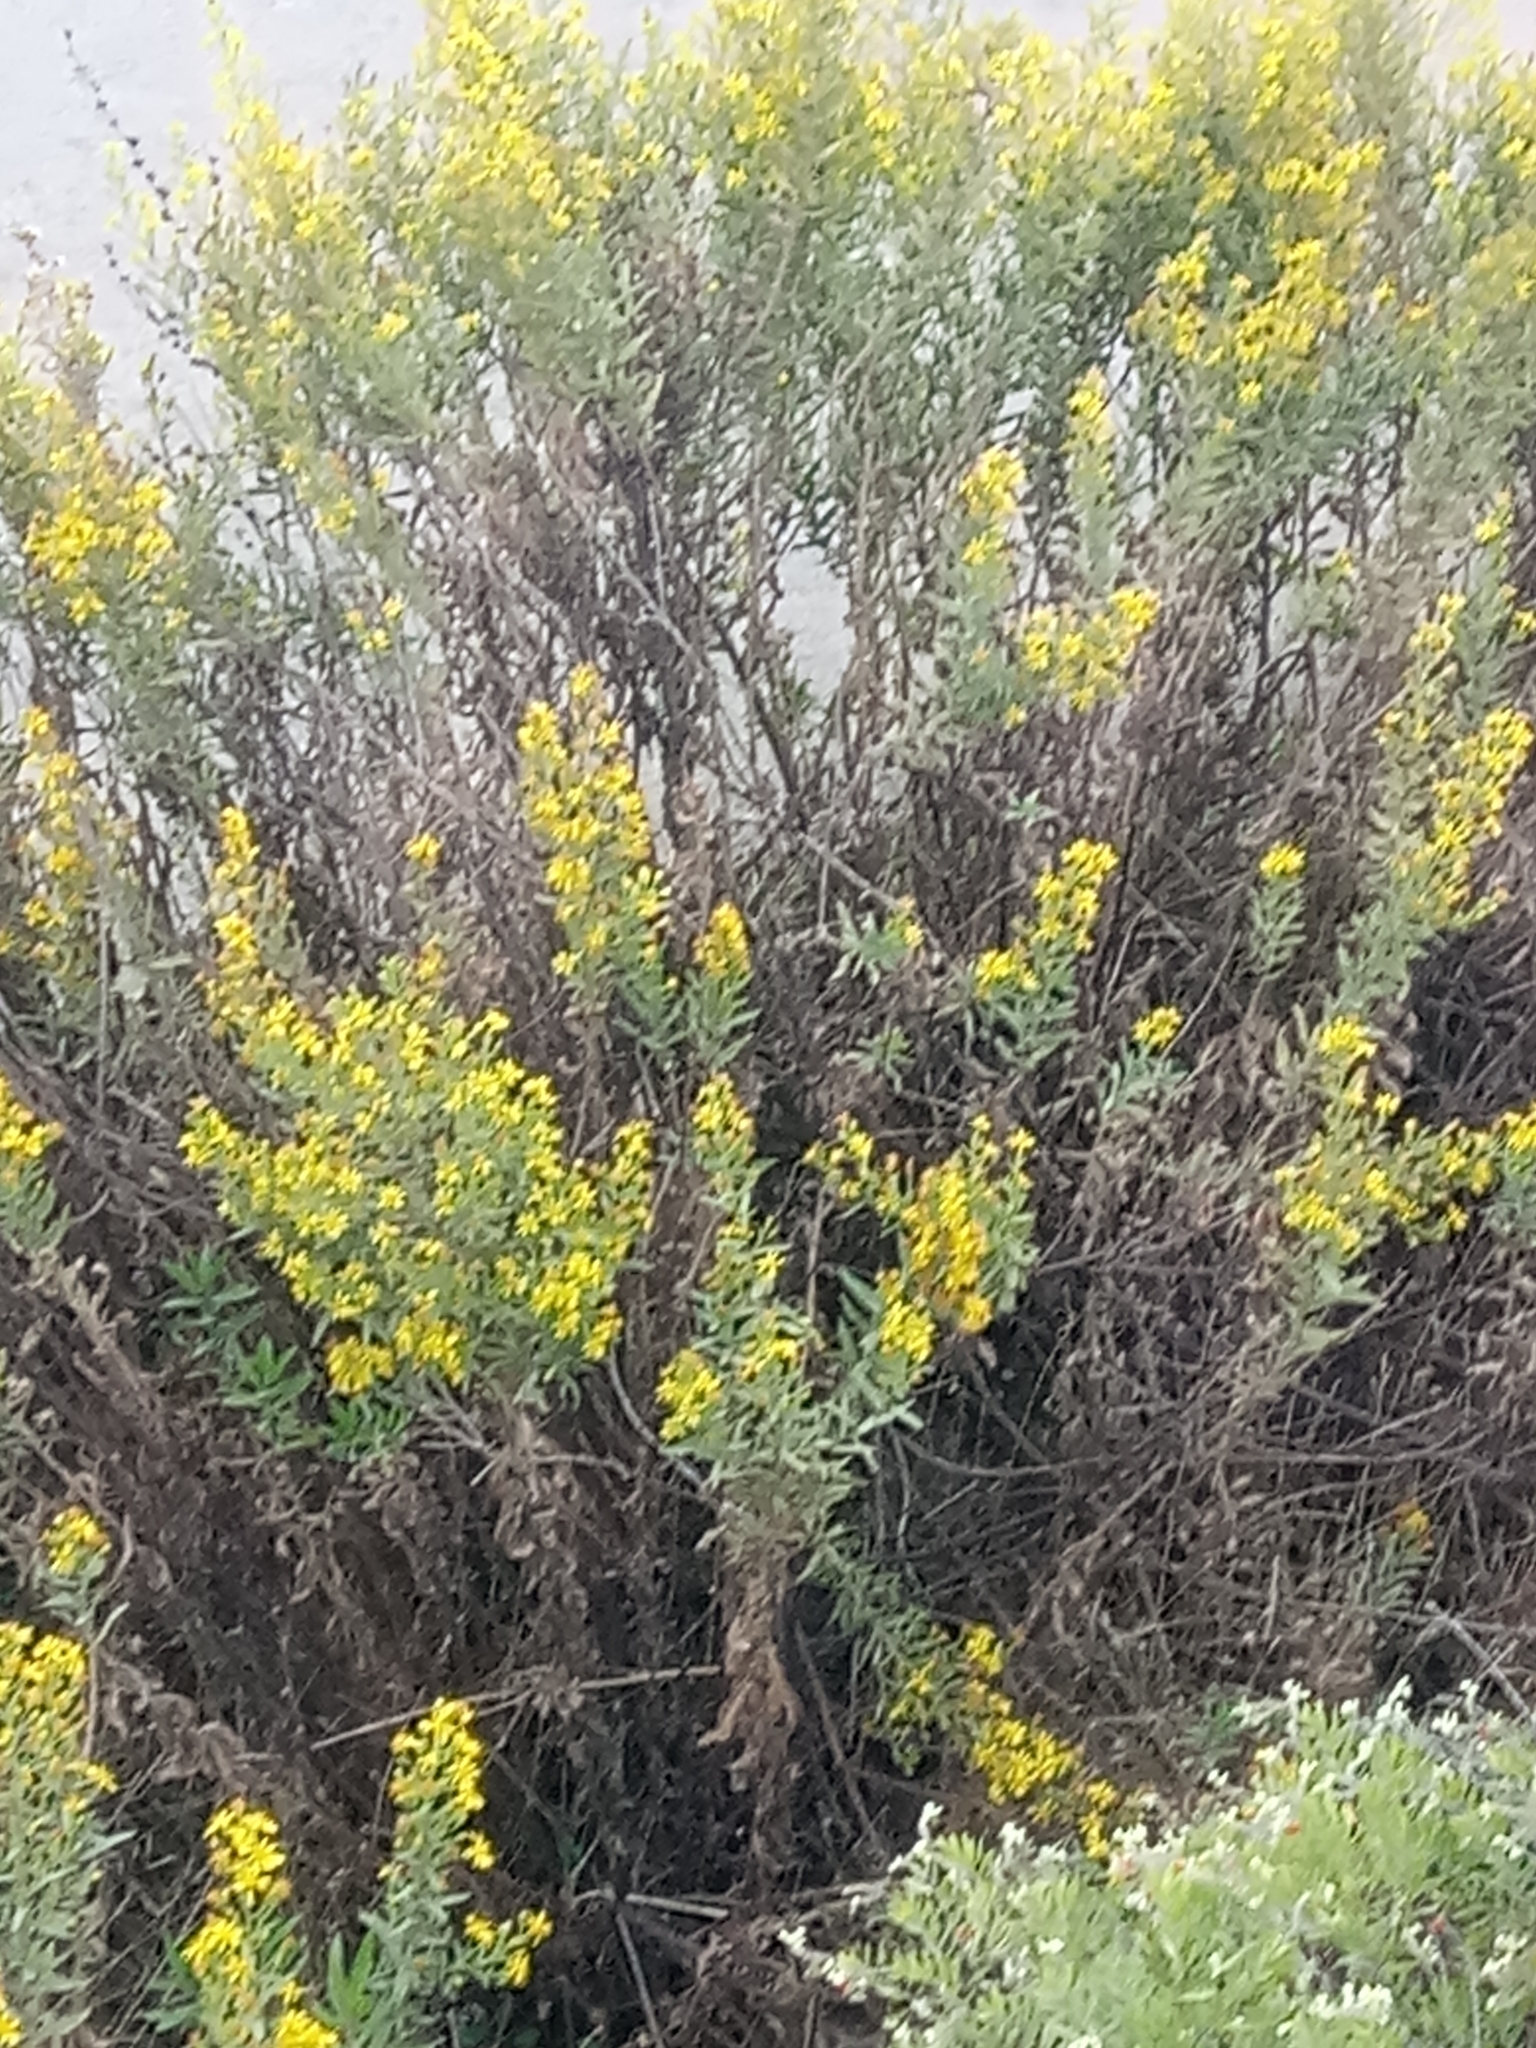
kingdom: Plantae
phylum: Tracheophyta
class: Magnoliopsida
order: Asterales
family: Asteraceae
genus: Dittrichia
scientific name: Dittrichia viscosa
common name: Woody fleabane
